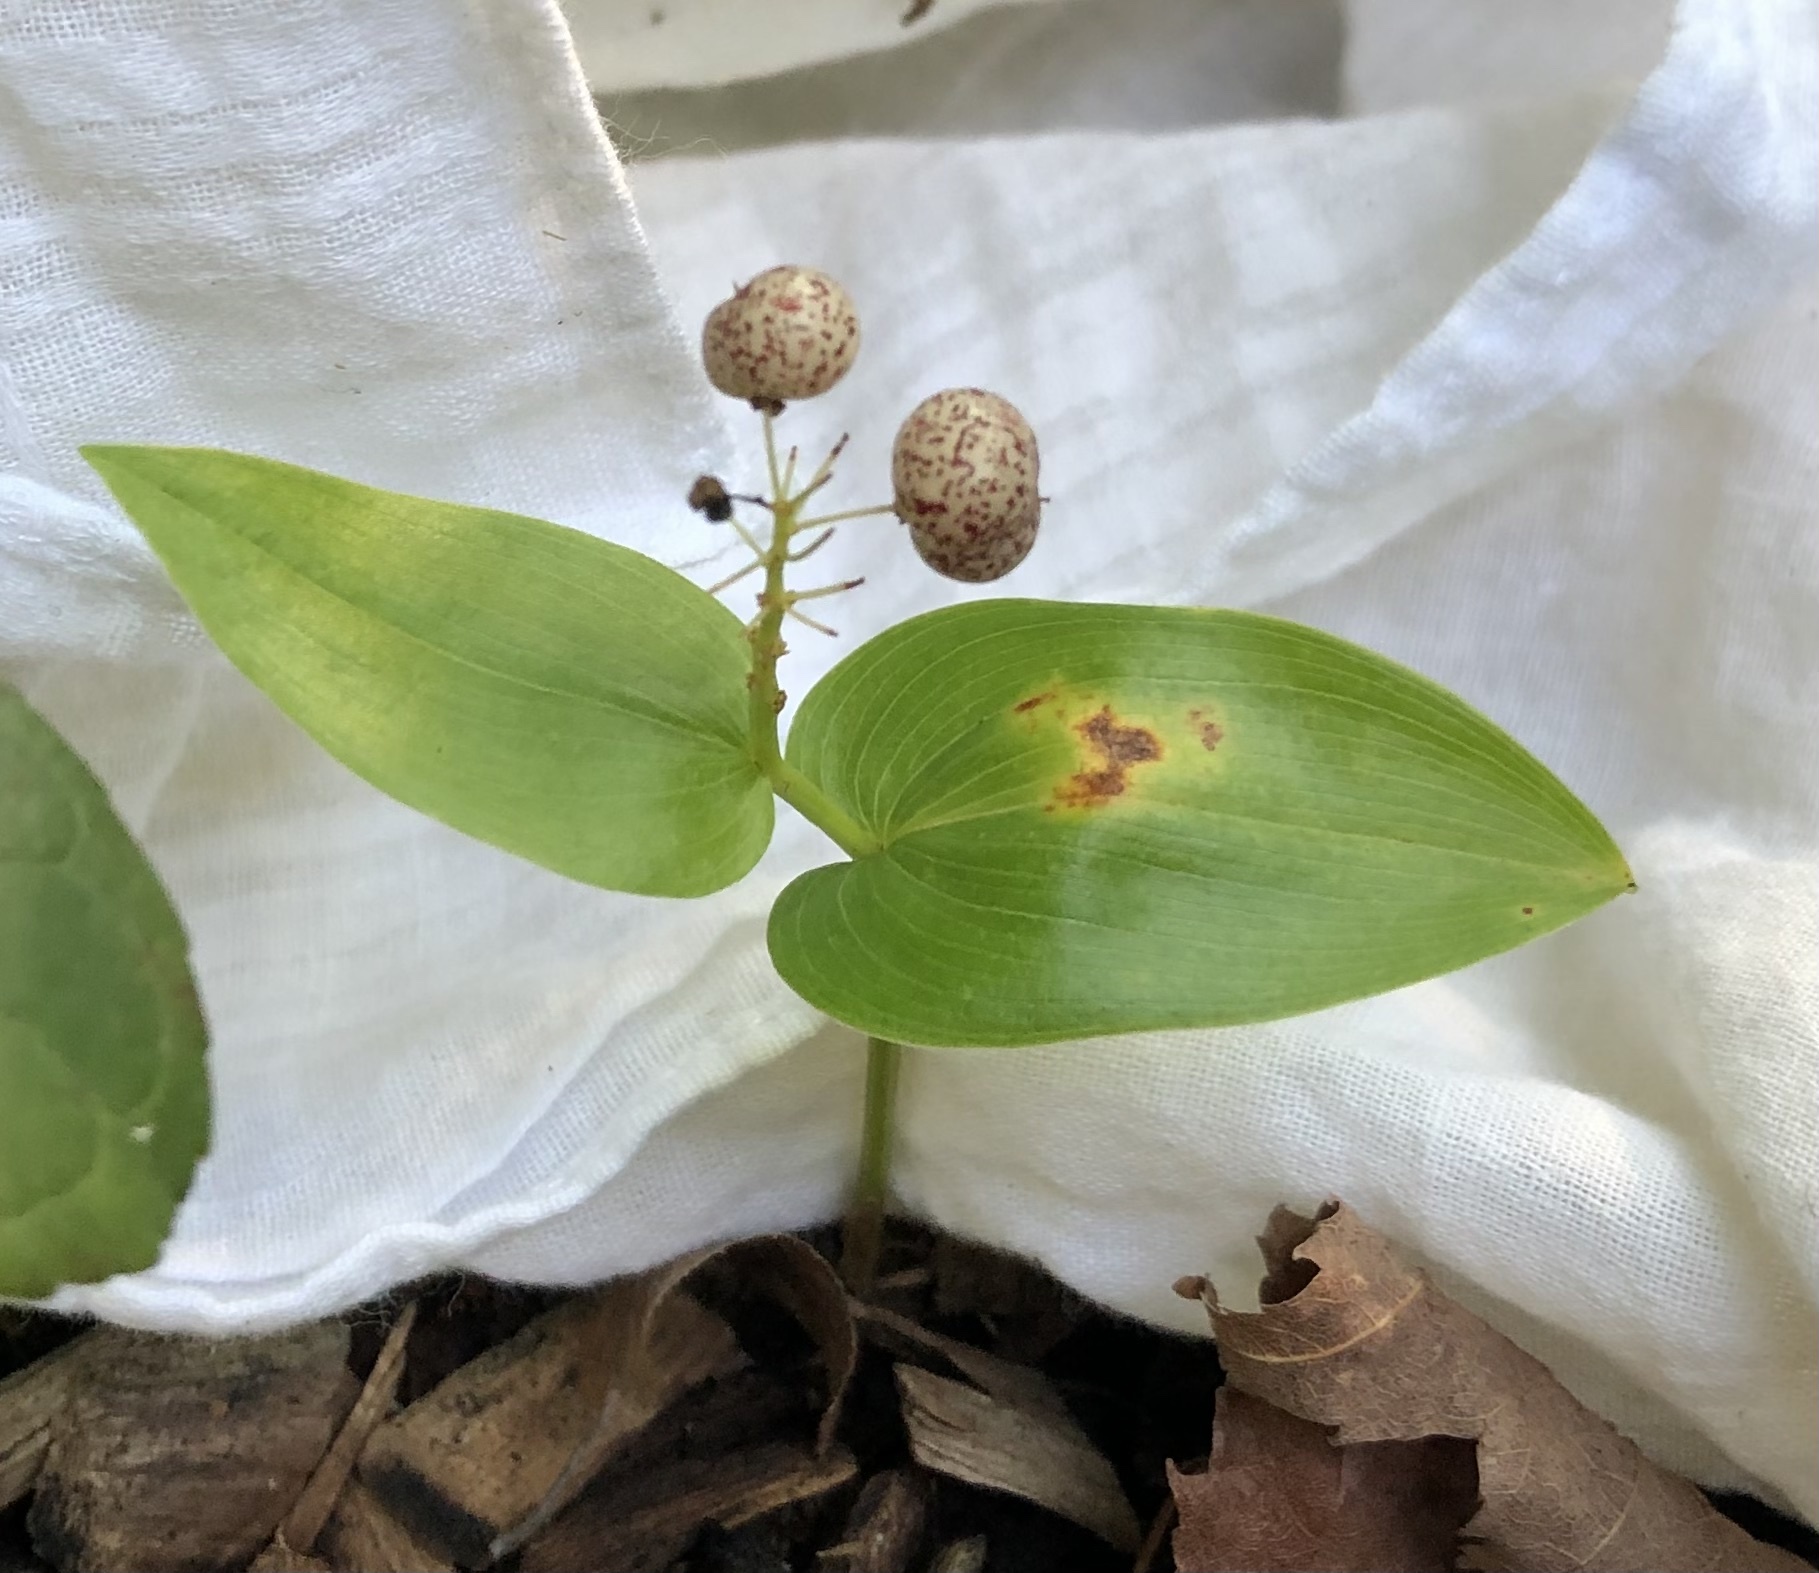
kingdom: Plantae
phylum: Tracheophyta
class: Liliopsida
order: Asparagales
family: Asparagaceae
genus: Maianthemum
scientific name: Maianthemum canadense
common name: False lily-of-the-valley
